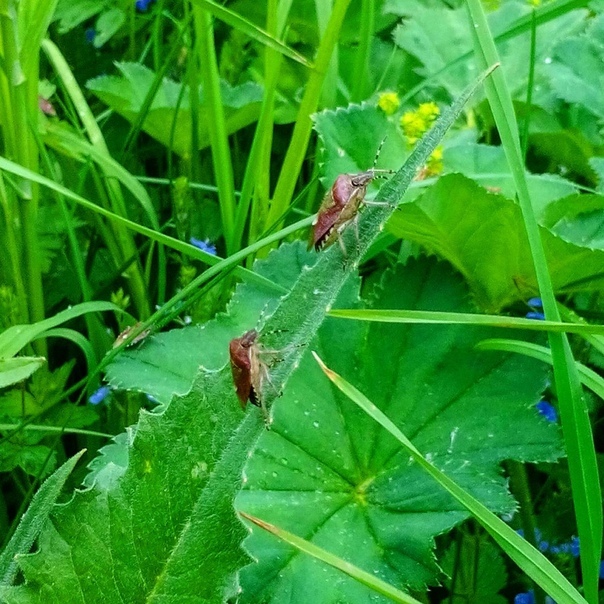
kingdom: Animalia
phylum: Arthropoda
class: Insecta
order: Hemiptera
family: Pentatomidae
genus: Dolycoris
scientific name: Dolycoris baccarum
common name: Sloe bug
